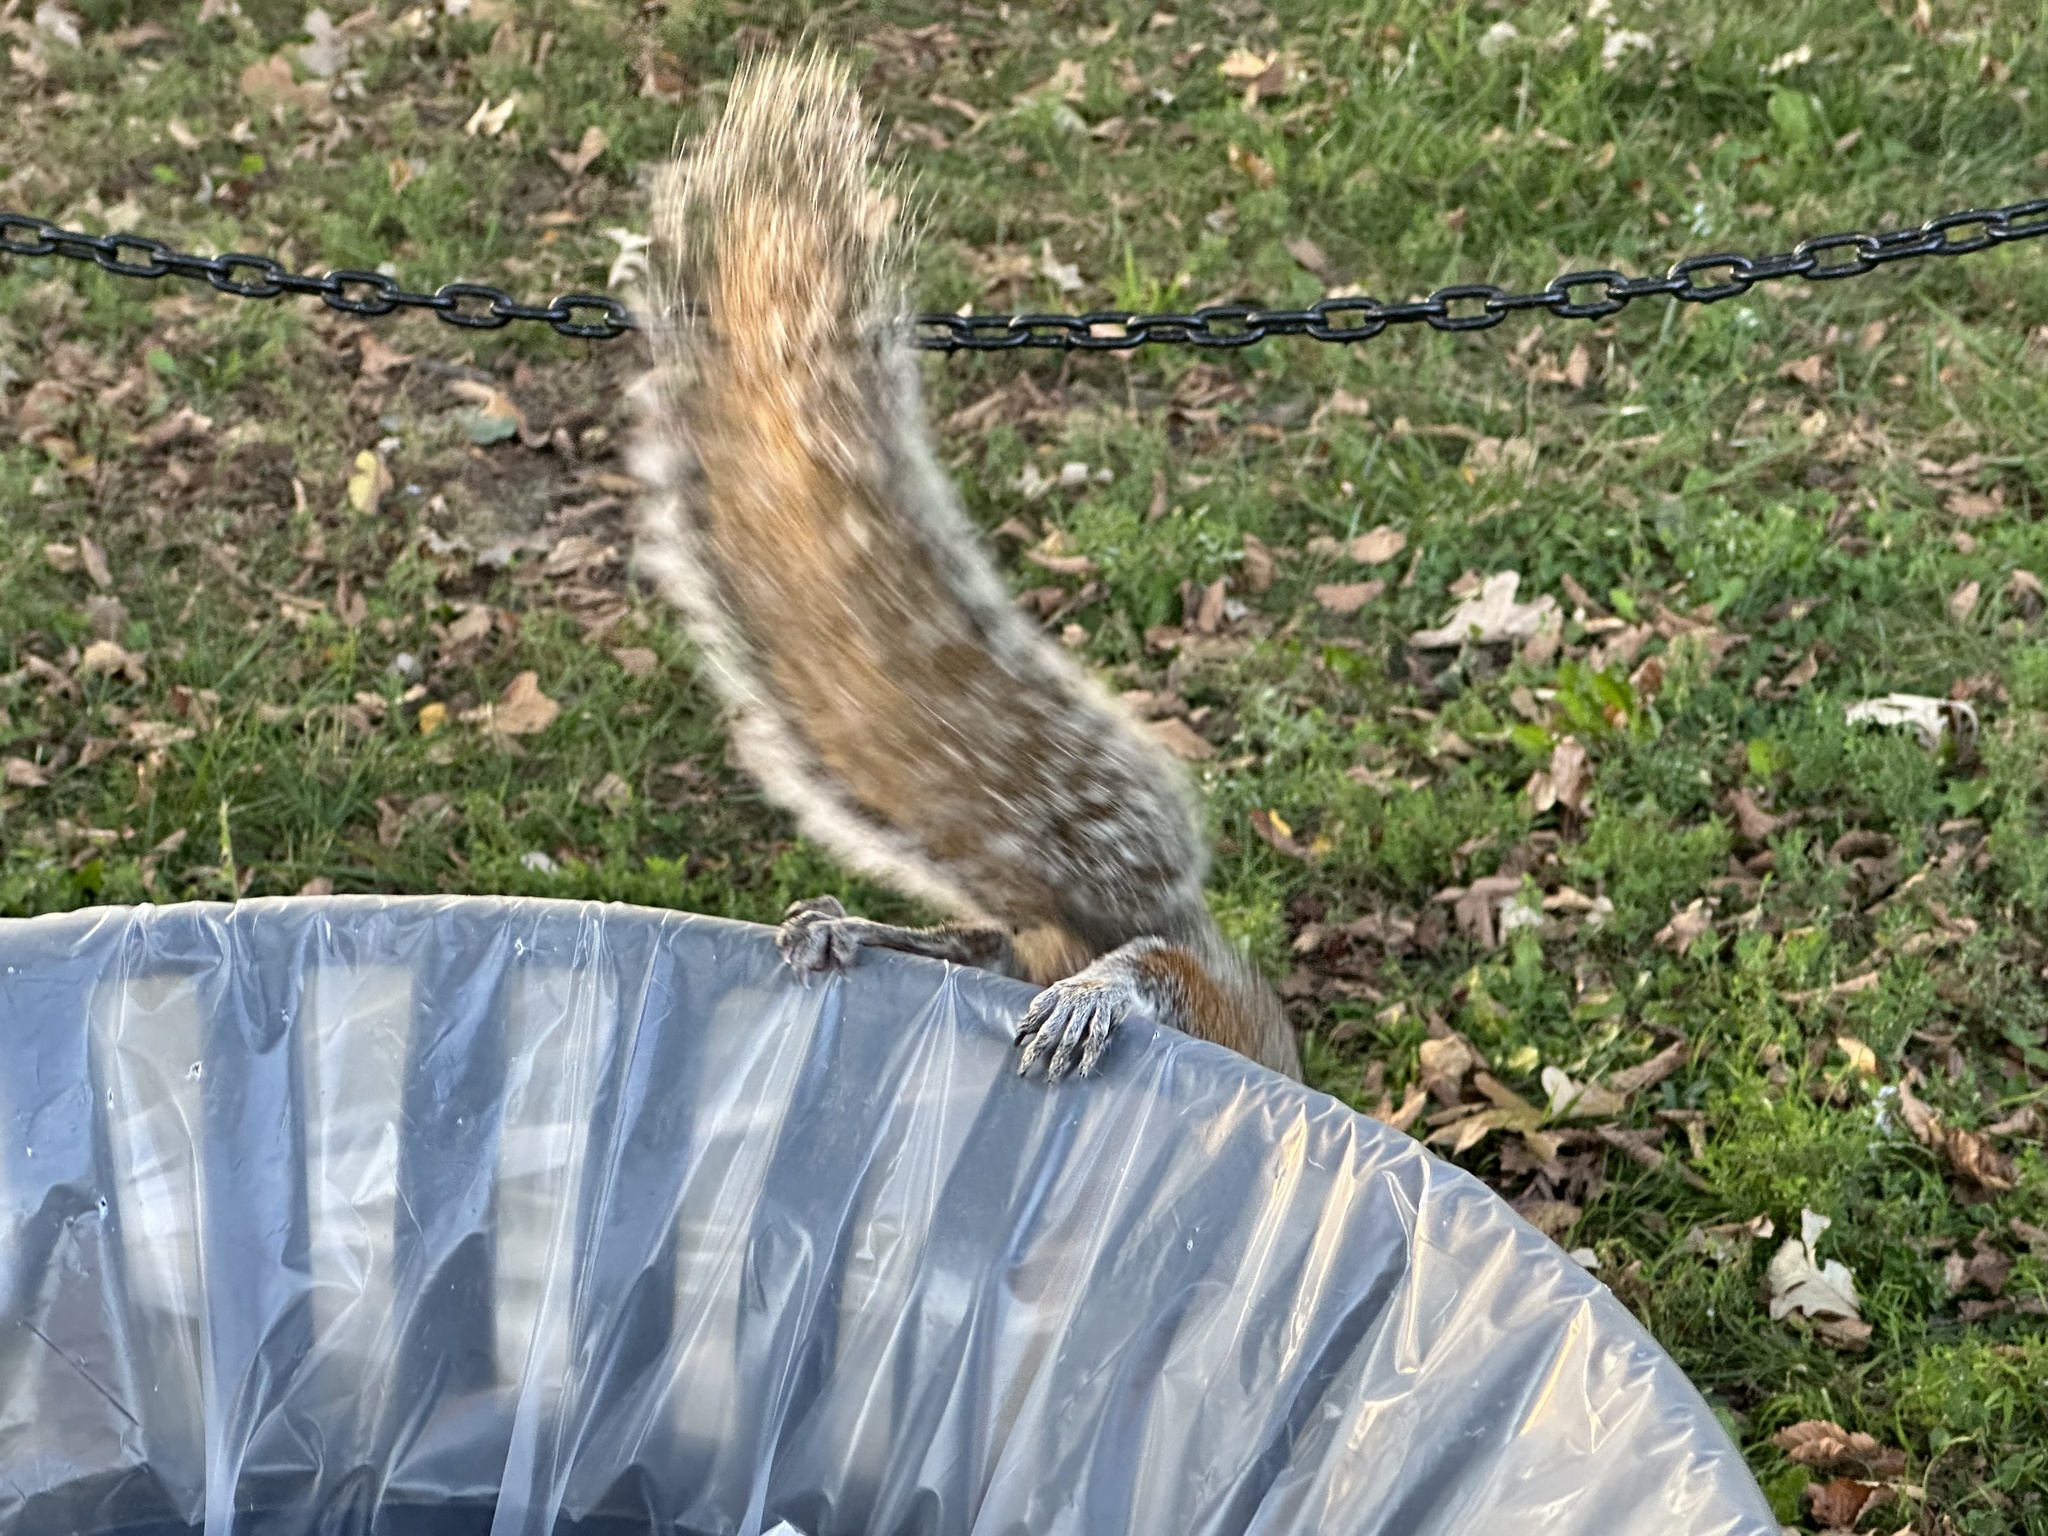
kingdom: Animalia
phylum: Chordata
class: Mammalia
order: Rodentia
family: Sciuridae
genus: Sciurus
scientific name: Sciurus carolinensis
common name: Eastern gray squirrel
